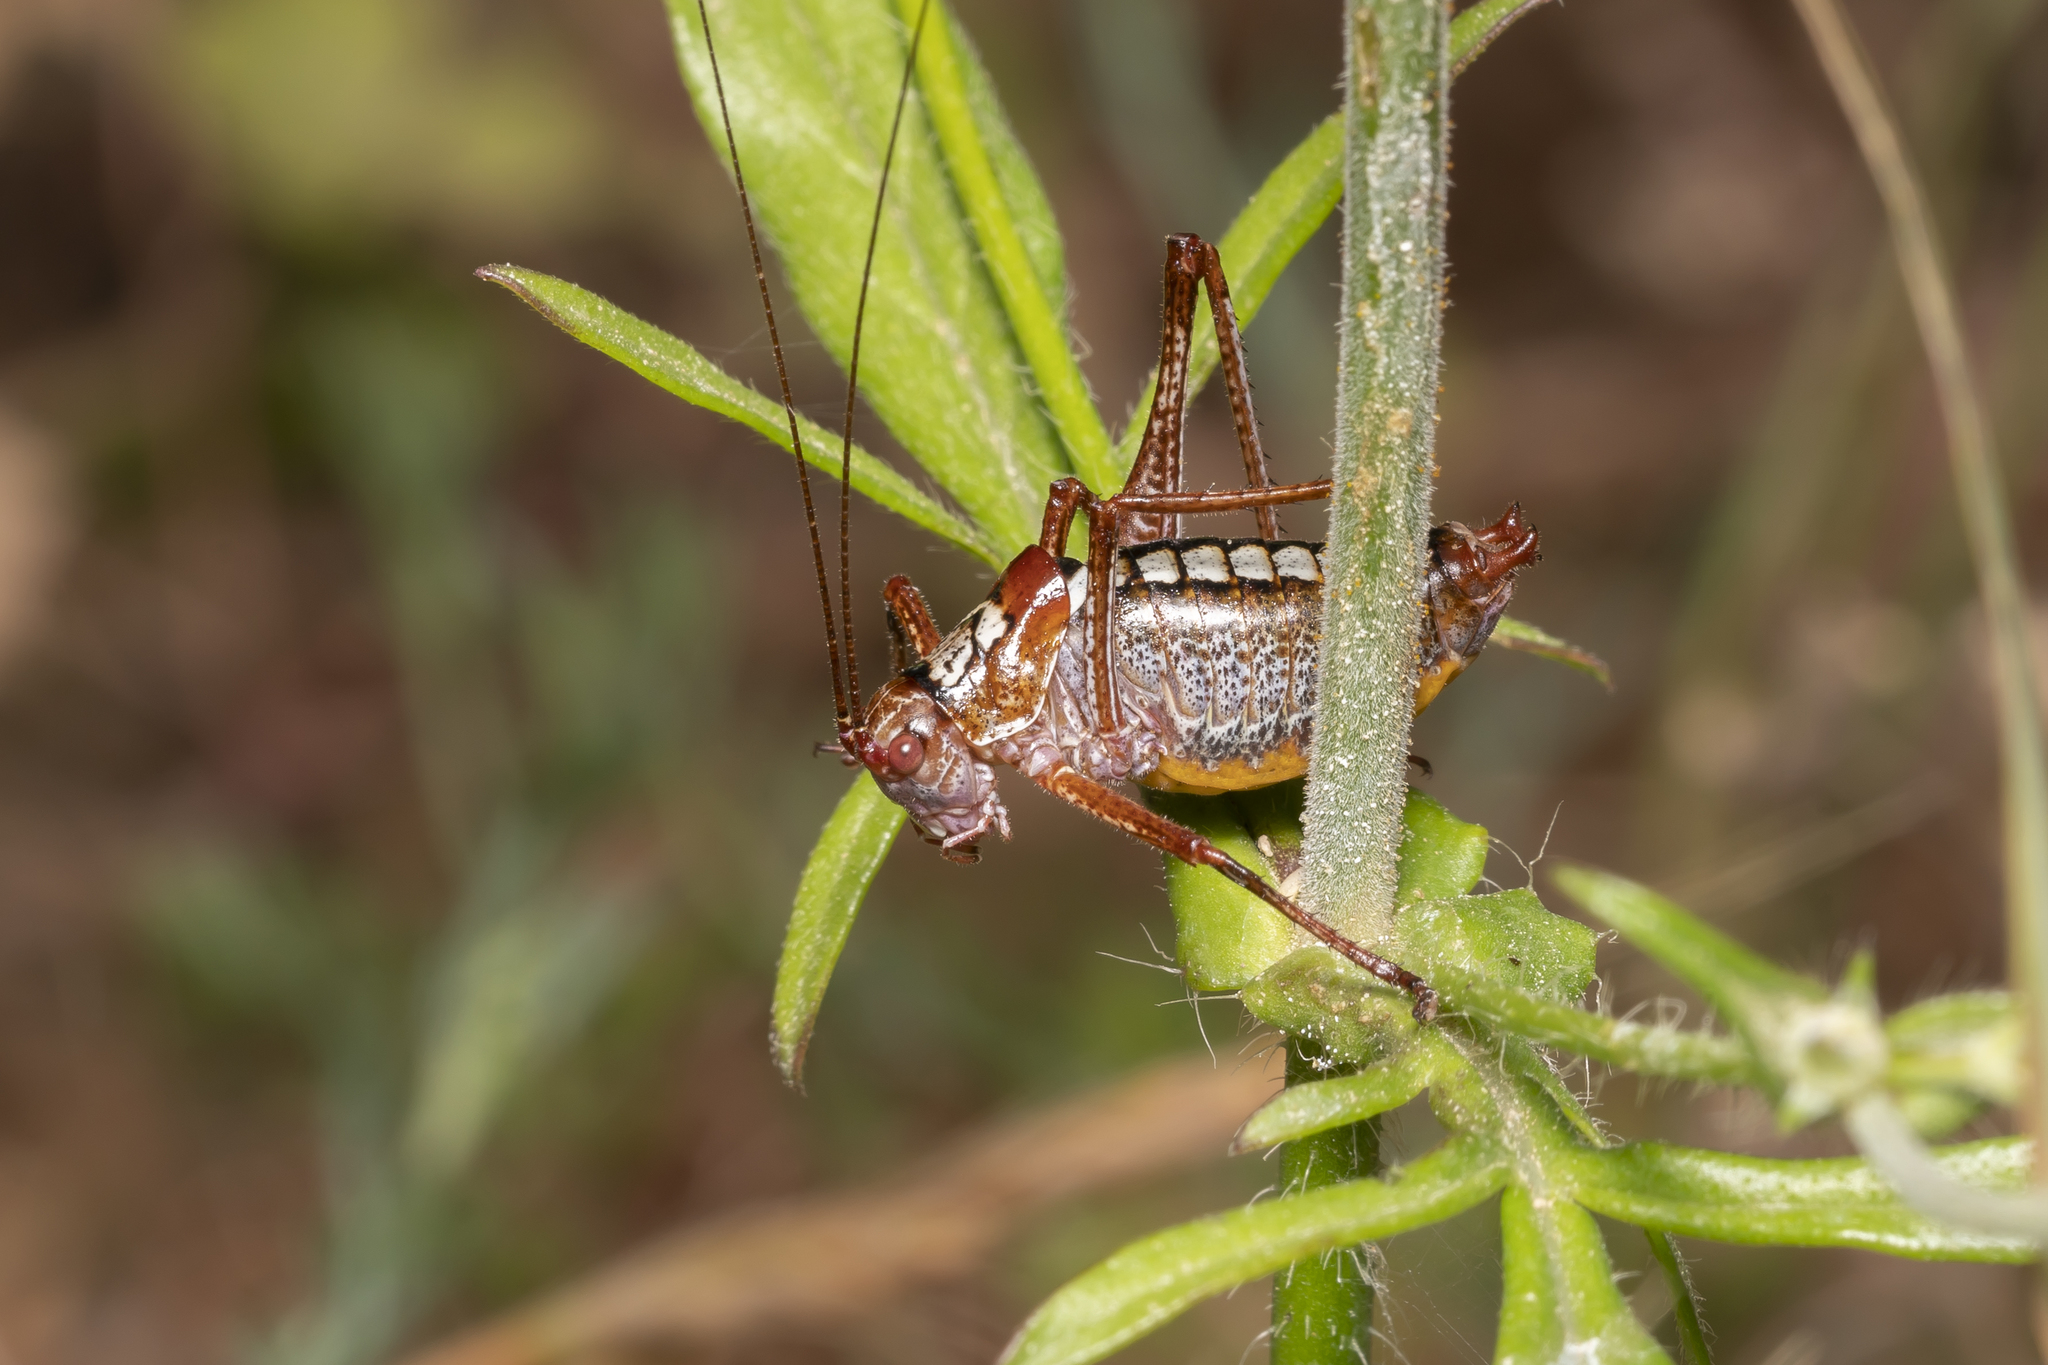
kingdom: Animalia
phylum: Arthropoda
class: Insecta
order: Orthoptera
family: Tettigoniidae
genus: Poecilimon
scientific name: Poecilimon hamatus
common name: Hooked bright bush-cricket
